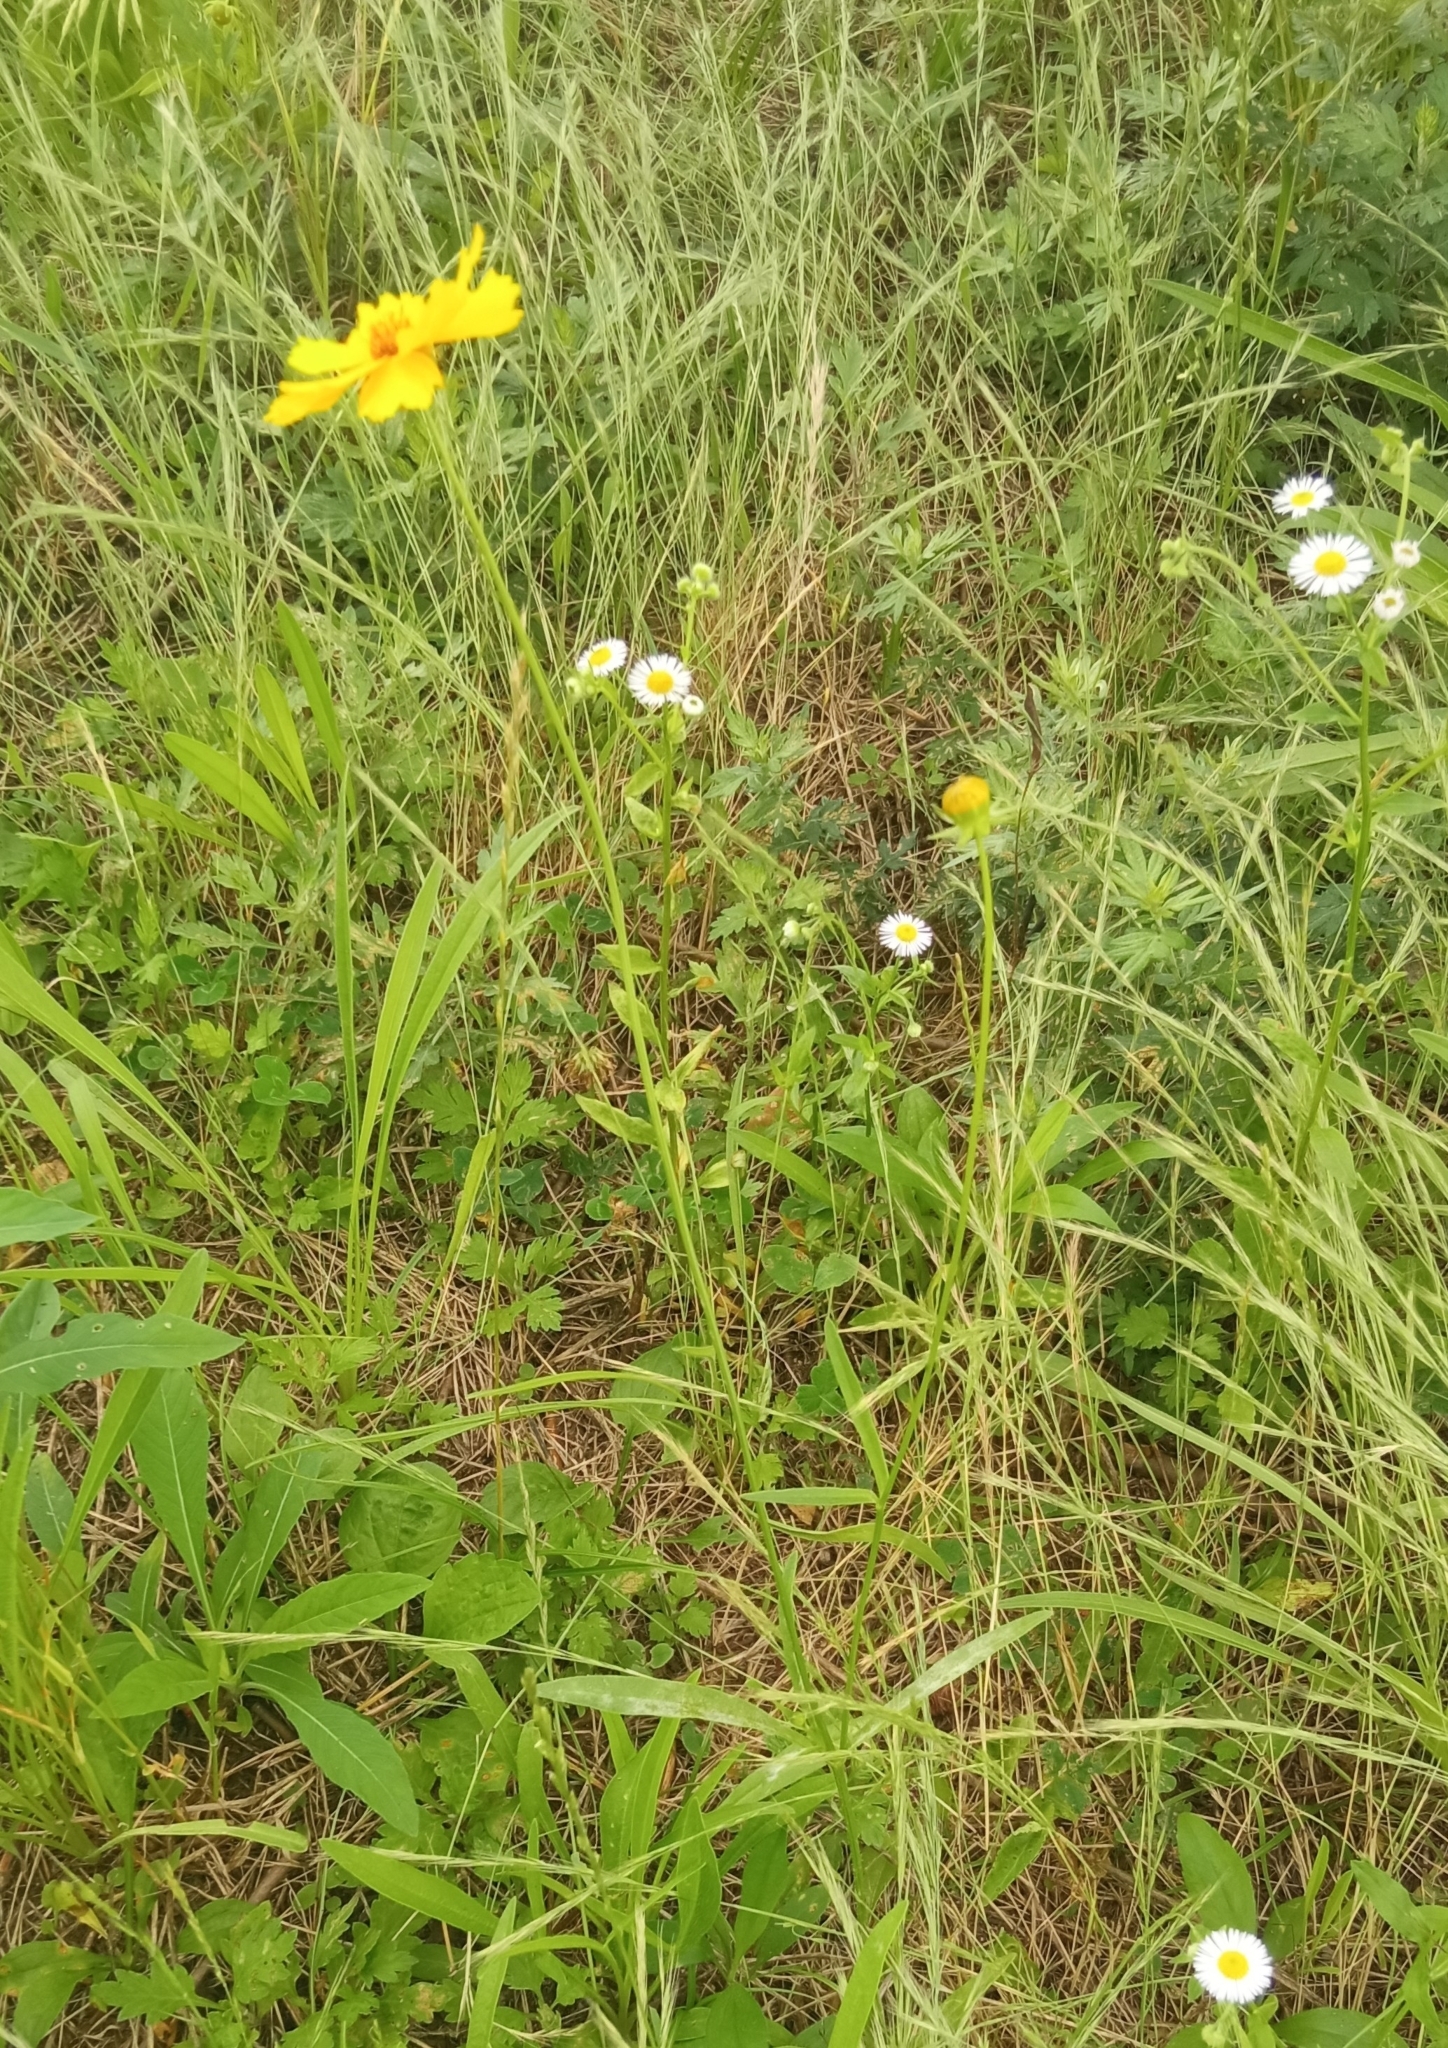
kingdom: Plantae
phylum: Tracheophyta
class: Magnoliopsida
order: Asterales
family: Asteraceae
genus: Coreopsis
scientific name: Coreopsis lanceolata
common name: Garden coreopsis
